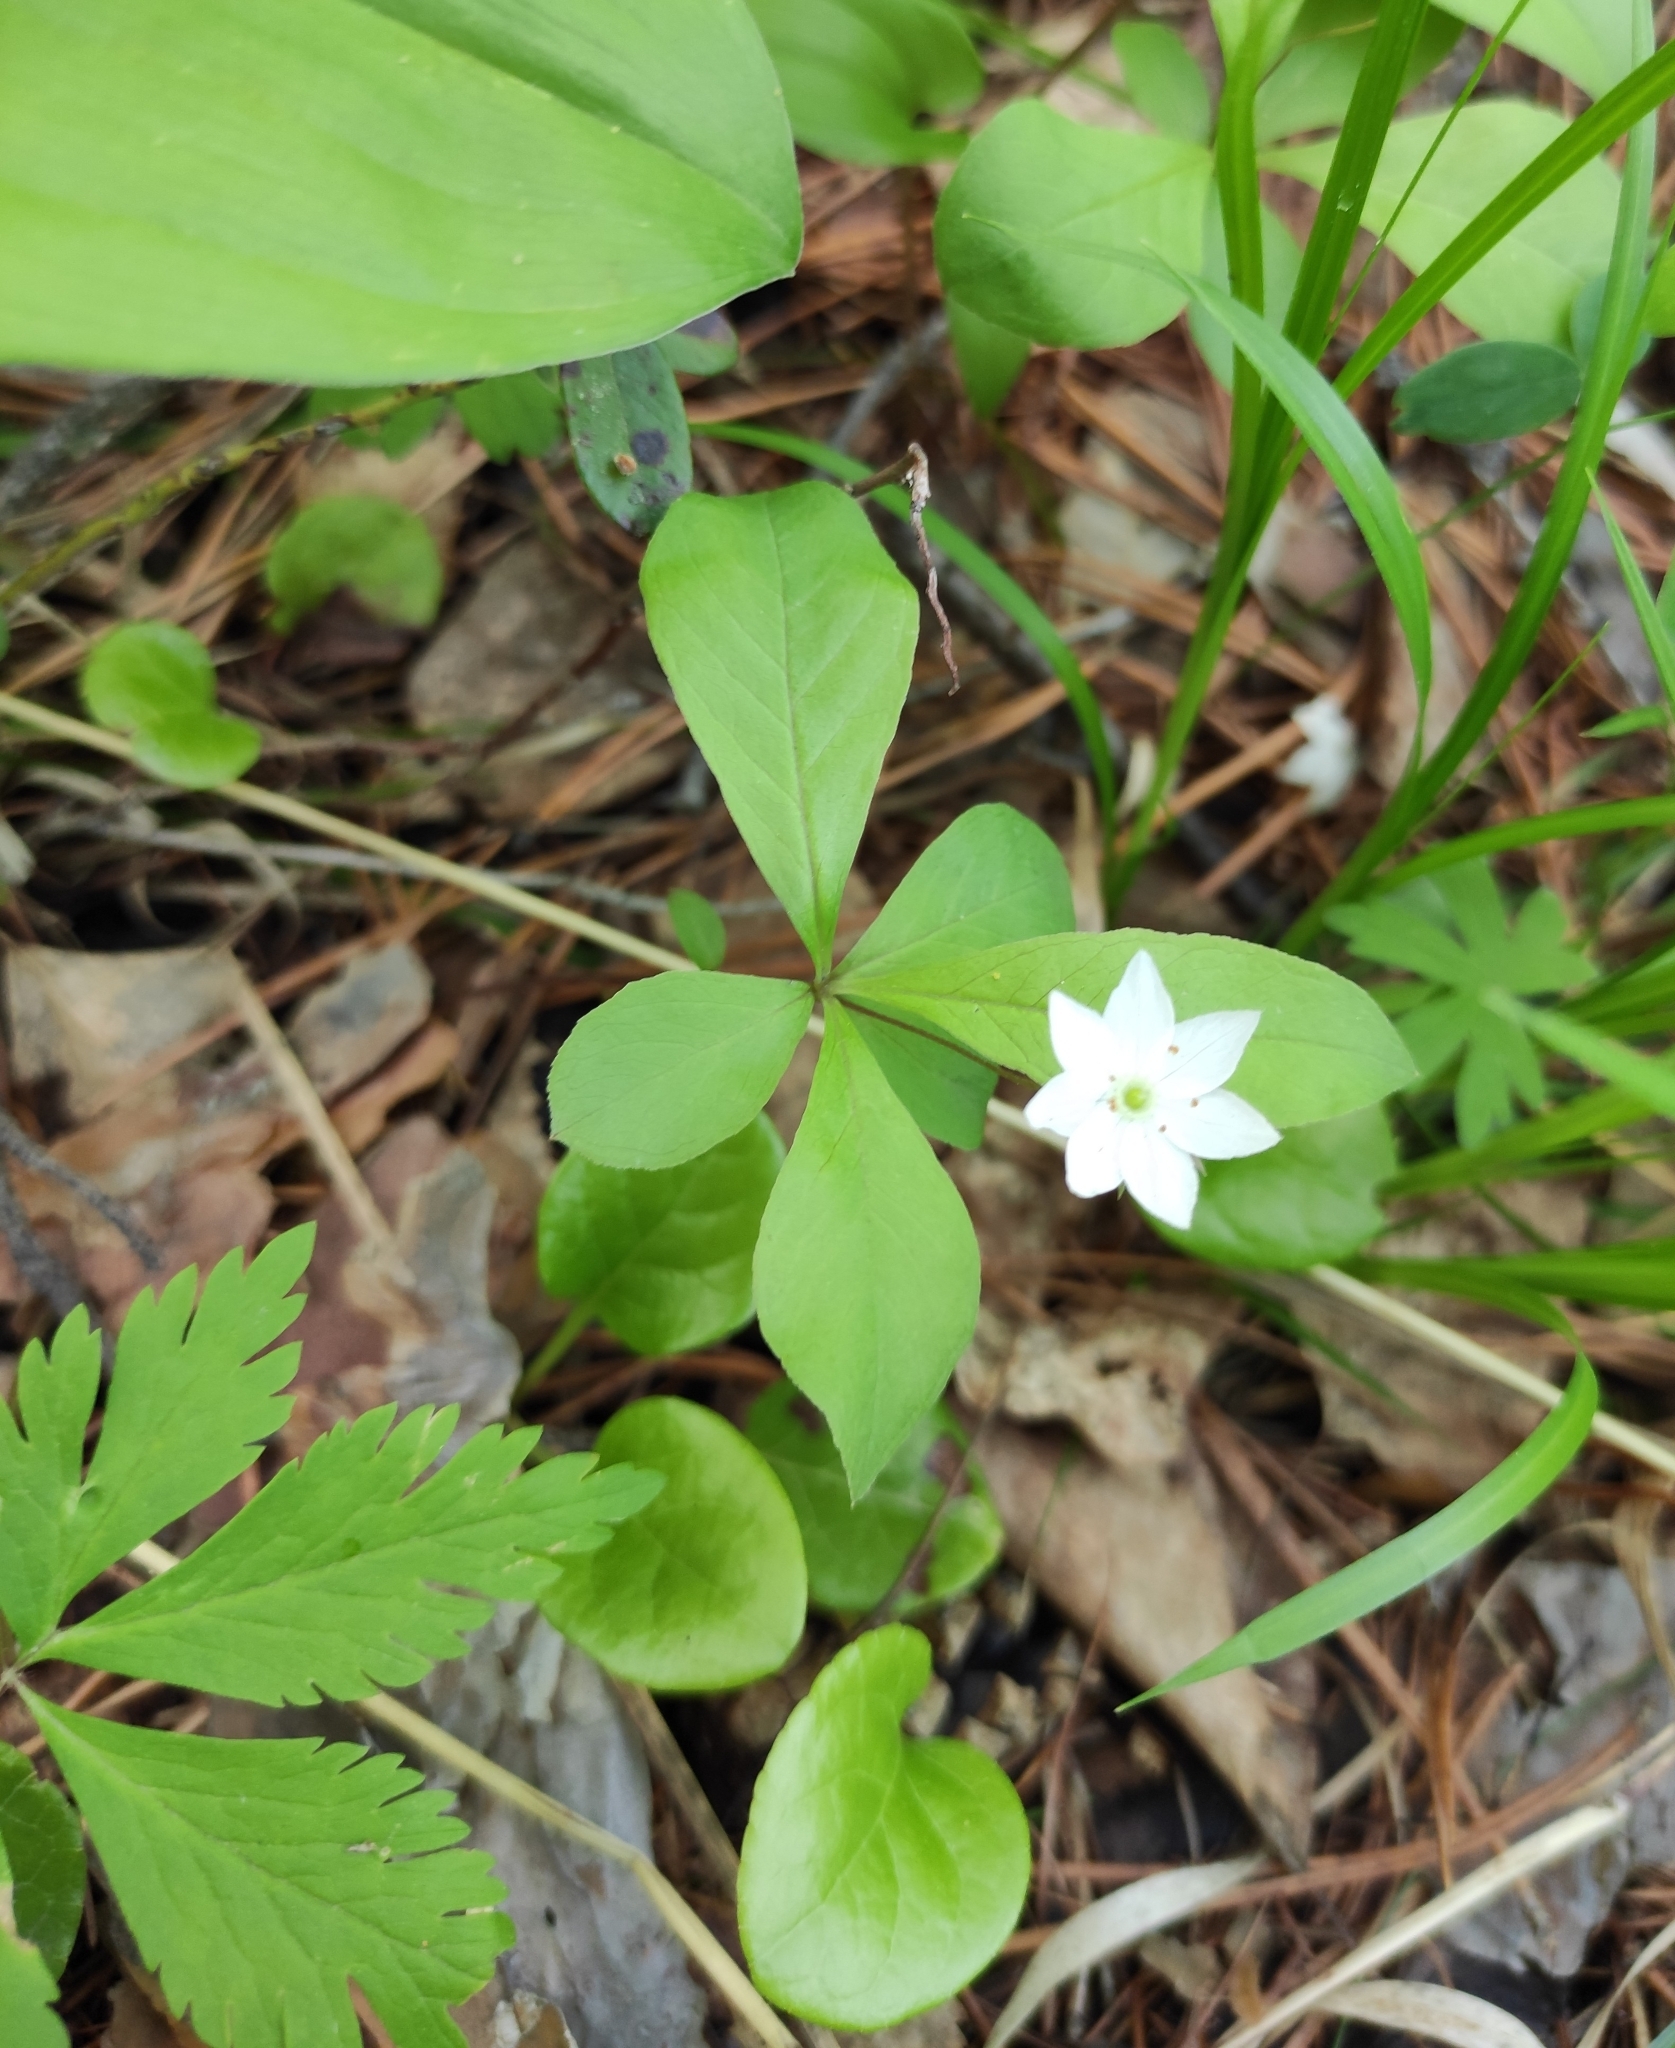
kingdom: Plantae
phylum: Tracheophyta
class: Magnoliopsida
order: Ericales
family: Primulaceae
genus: Lysimachia
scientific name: Lysimachia europaea
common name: Arctic starflower
